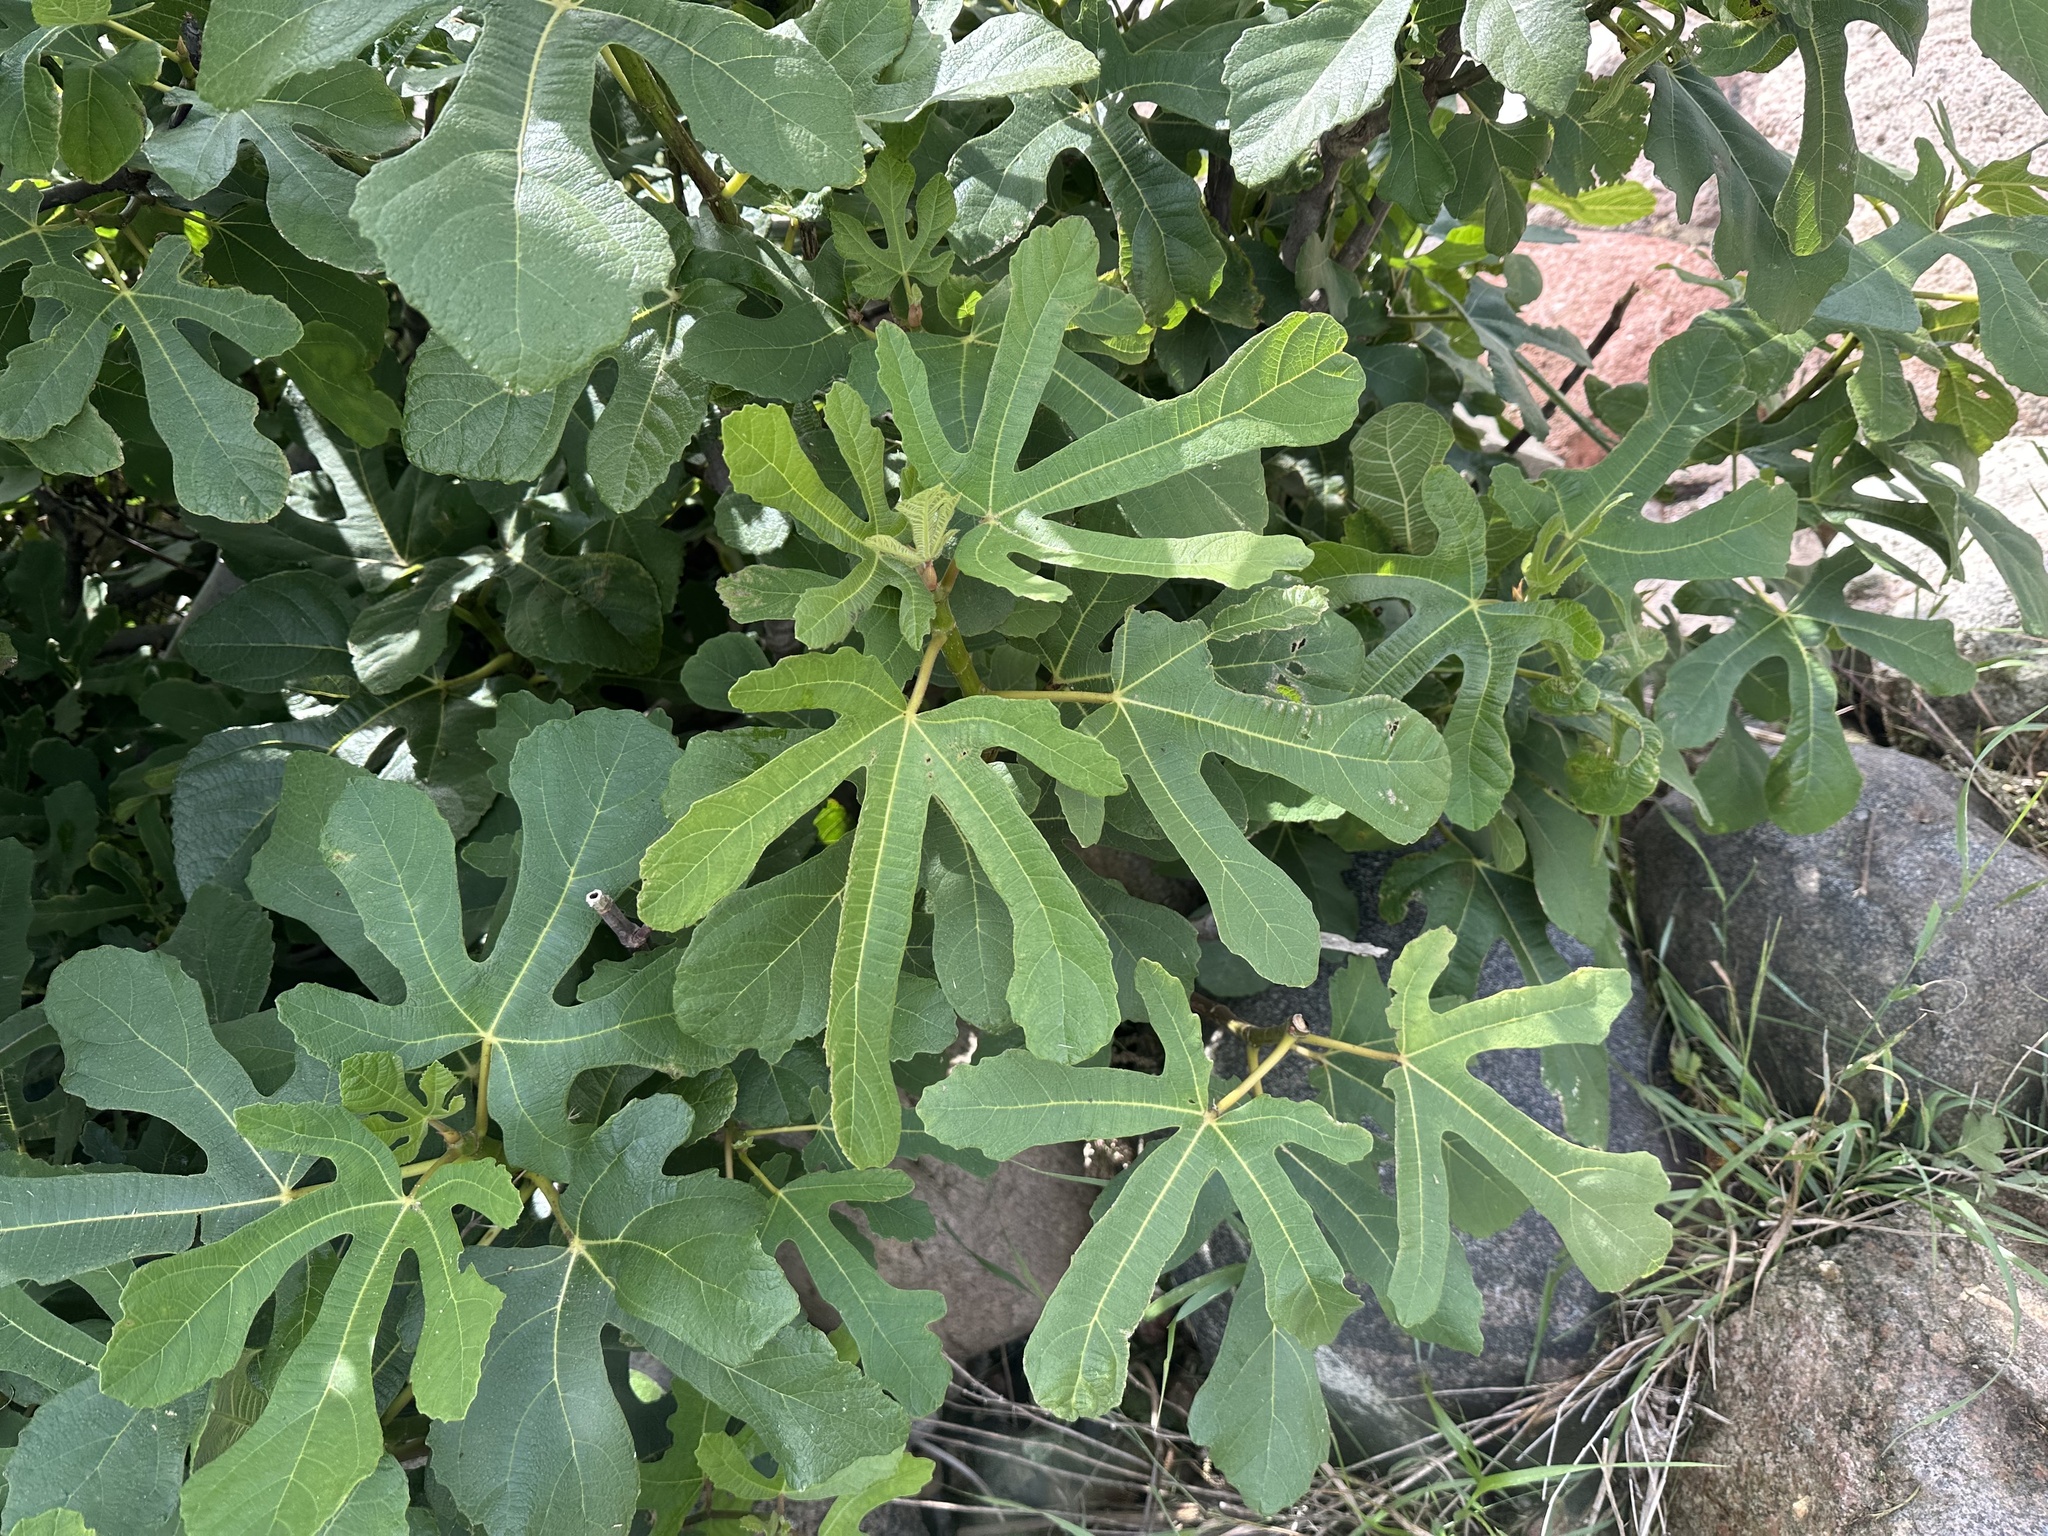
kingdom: Plantae
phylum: Tracheophyta
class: Magnoliopsida
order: Rosales
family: Moraceae
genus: Ficus
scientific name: Ficus carica
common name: Fig
